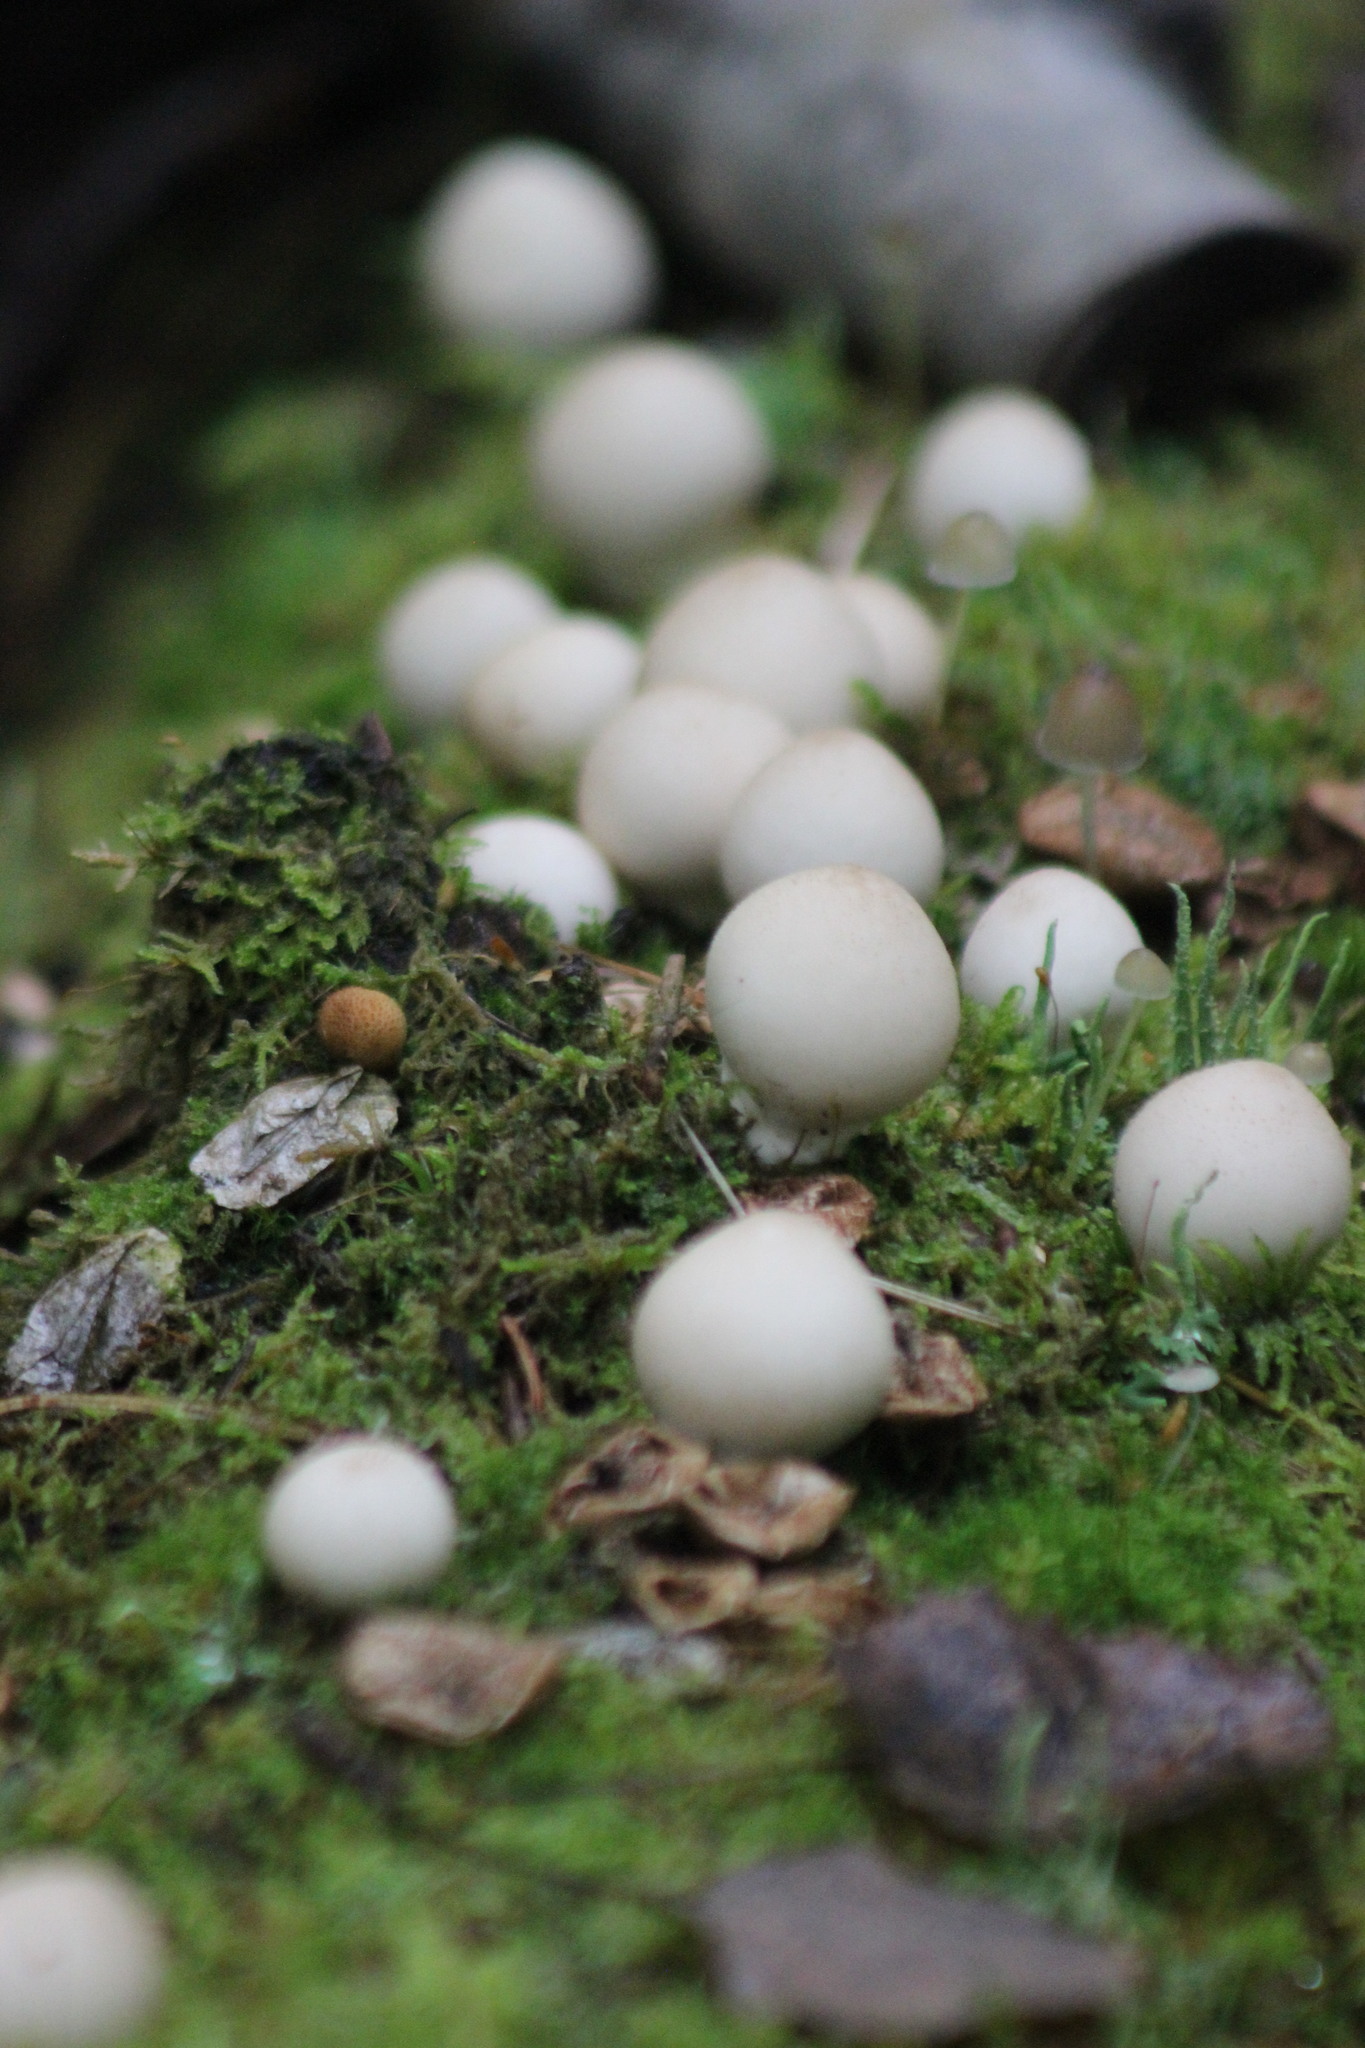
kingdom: Fungi
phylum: Basidiomycota
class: Agaricomycetes
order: Agaricales
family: Lycoperdaceae
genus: Apioperdon
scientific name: Apioperdon pyriforme
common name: Pear-shaped puffball
